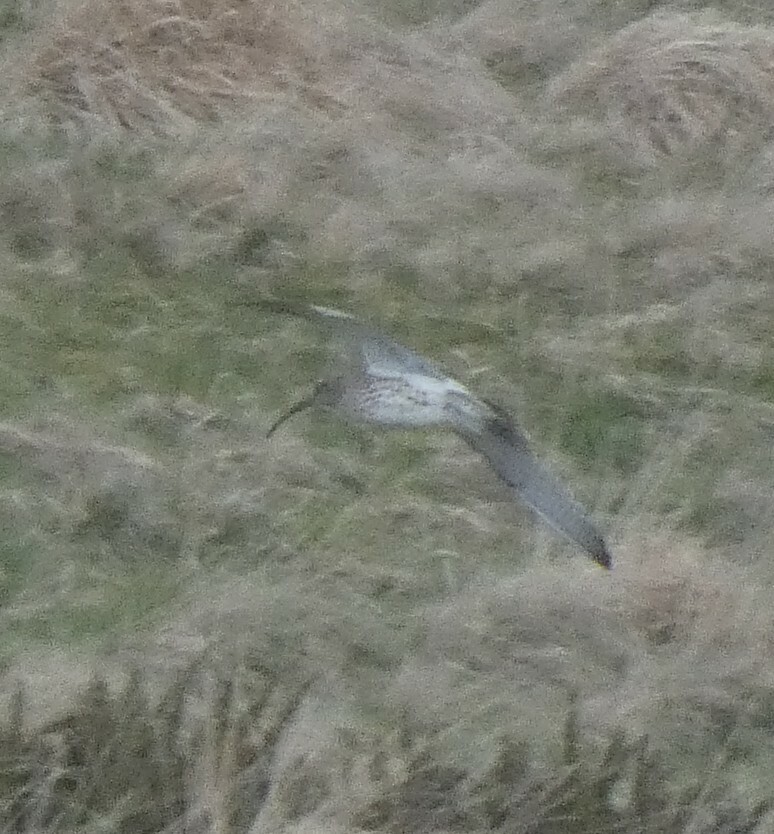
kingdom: Animalia
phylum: Chordata
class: Aves
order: Charadriiformes
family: Scolopacidae
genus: Numenius
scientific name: Numenius arquata
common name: Eurasian curlew
